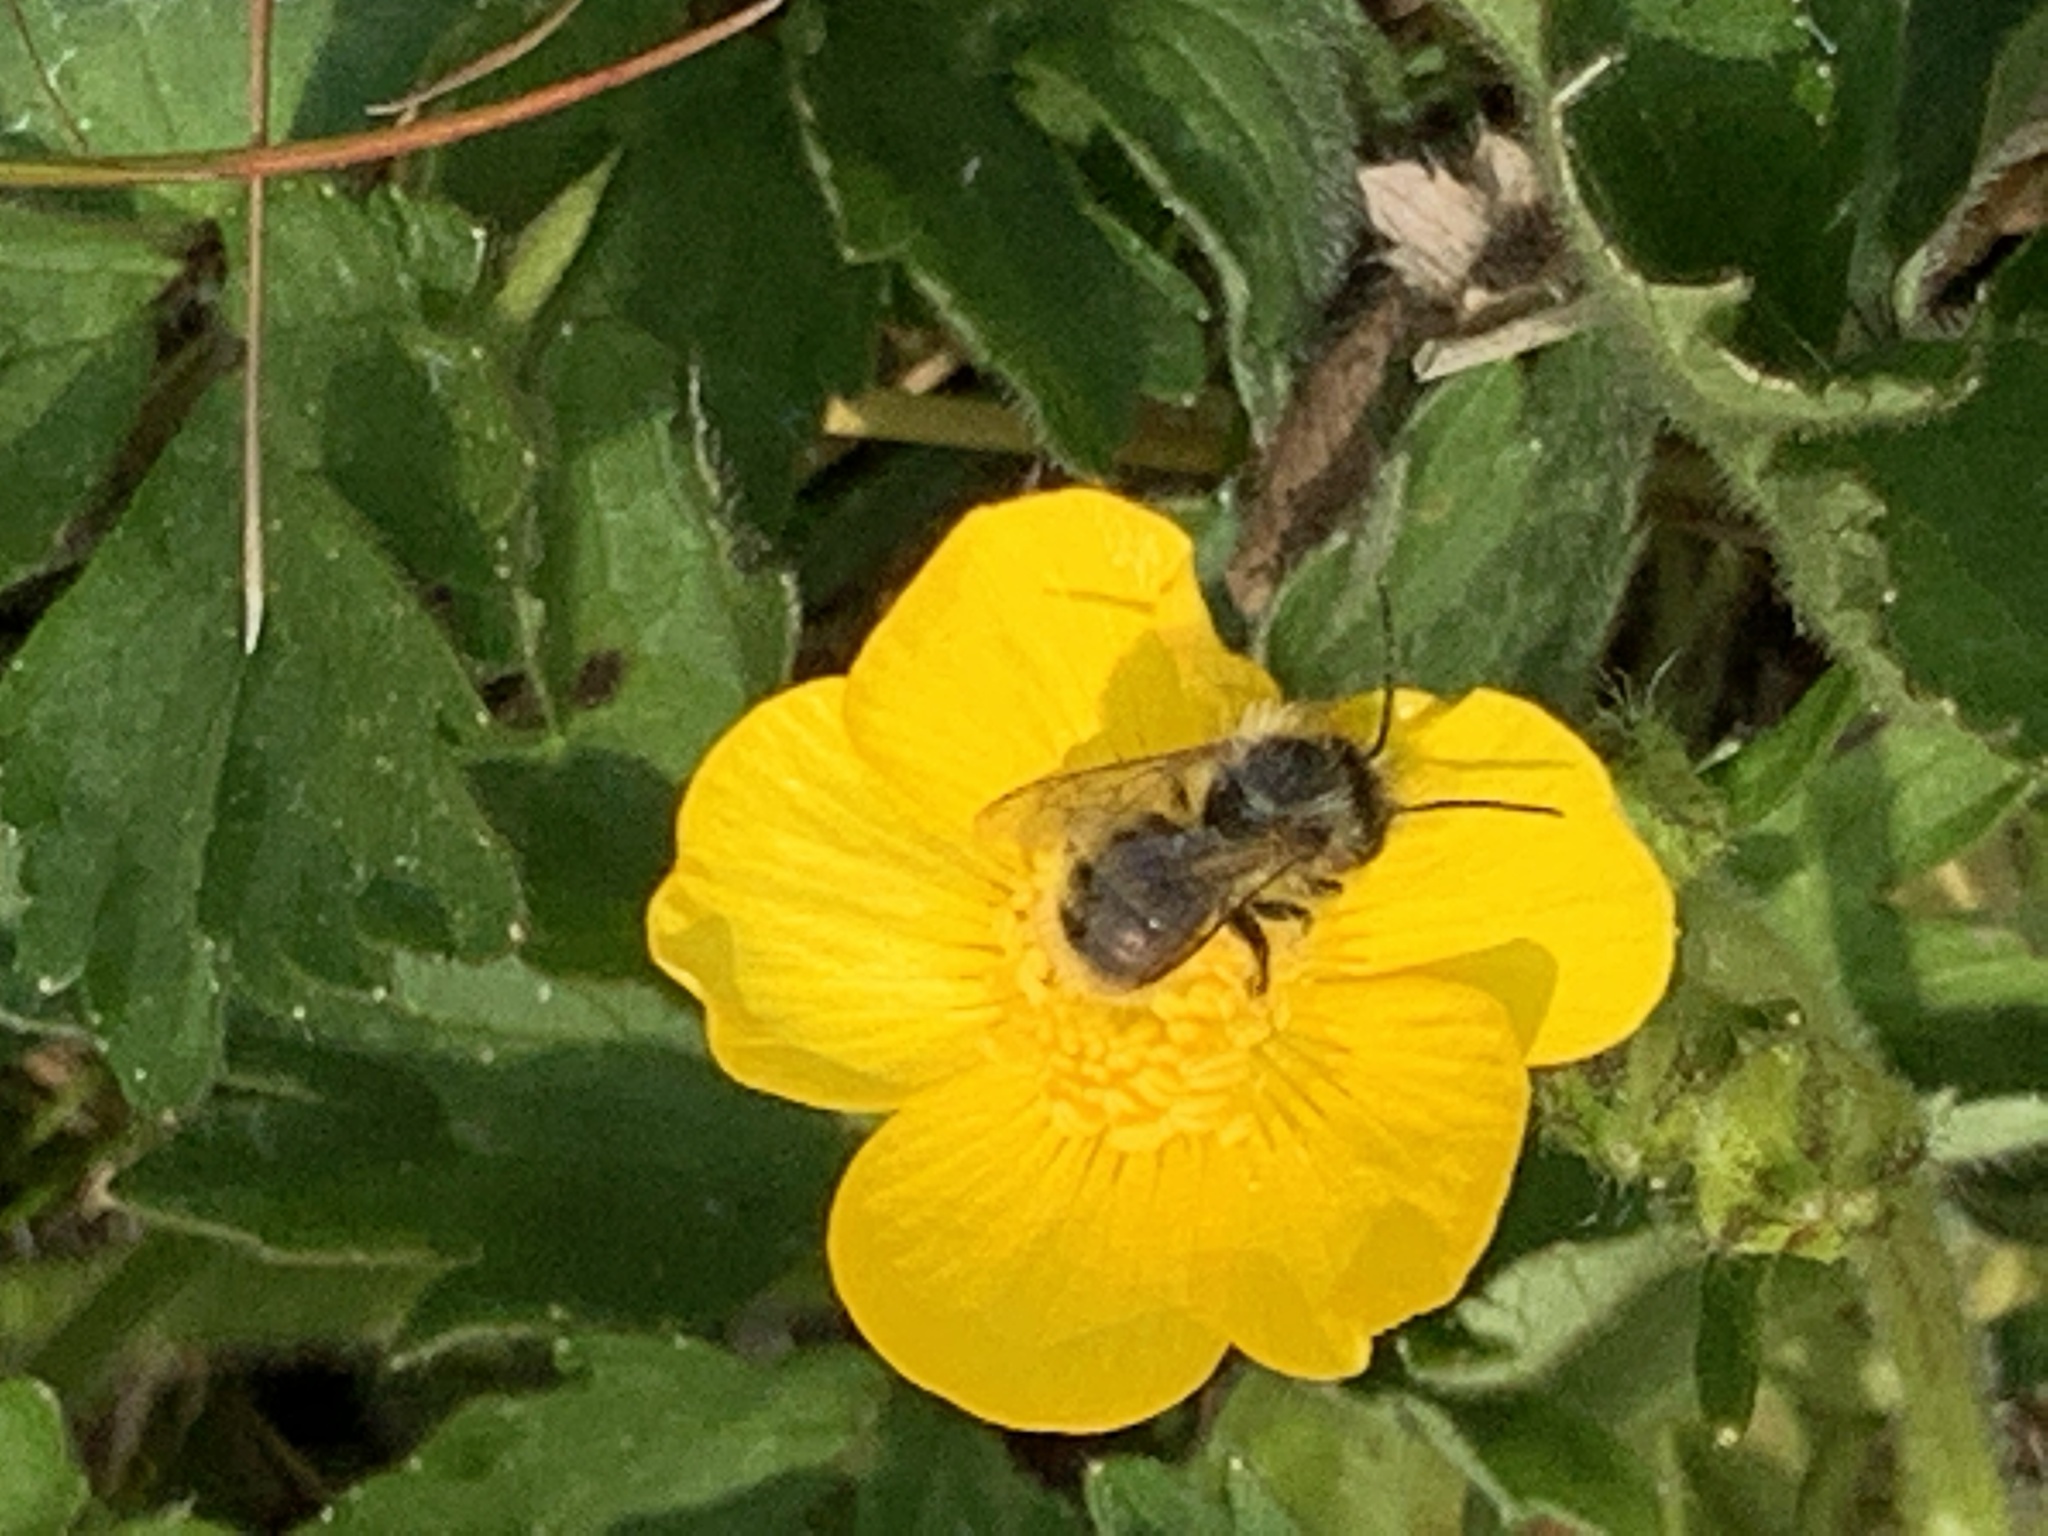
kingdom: Animalia
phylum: Arthropoda
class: Insecta
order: Hymenoptera
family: Megachilidae
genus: Osmia
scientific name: Osmia bicornis
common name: Red mason bee
